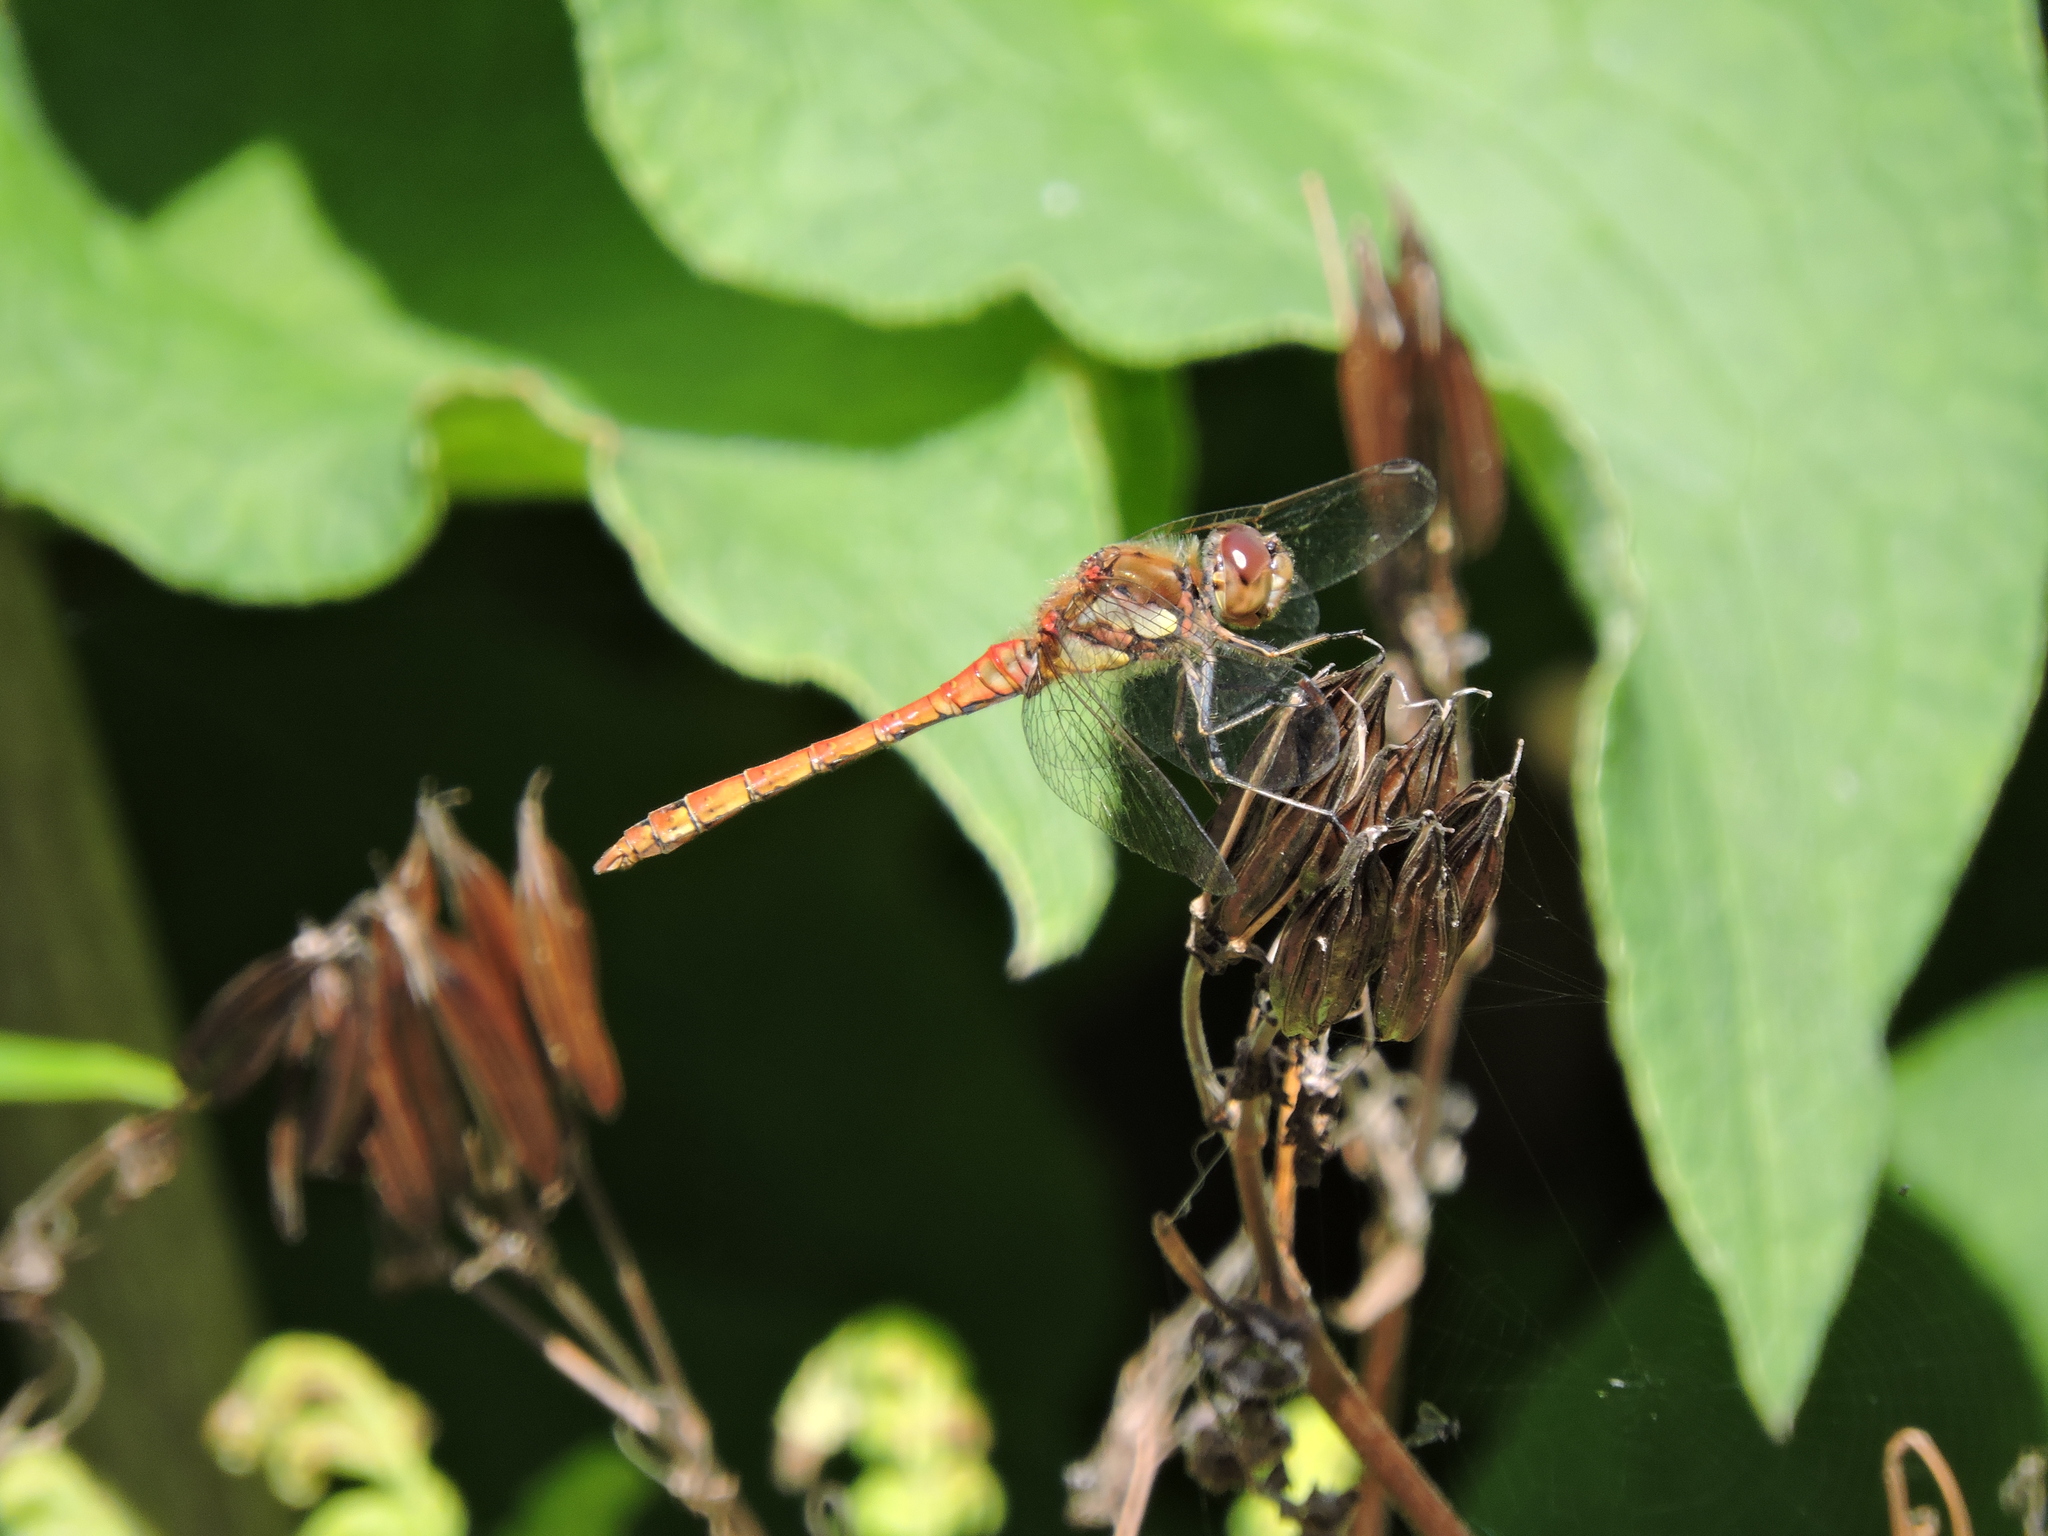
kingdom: Animalia
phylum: Arthropoda
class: Insecta
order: Odonata
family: Libellulidae
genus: Sympetrum
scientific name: Sympetrum striolatum
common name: Common darter
